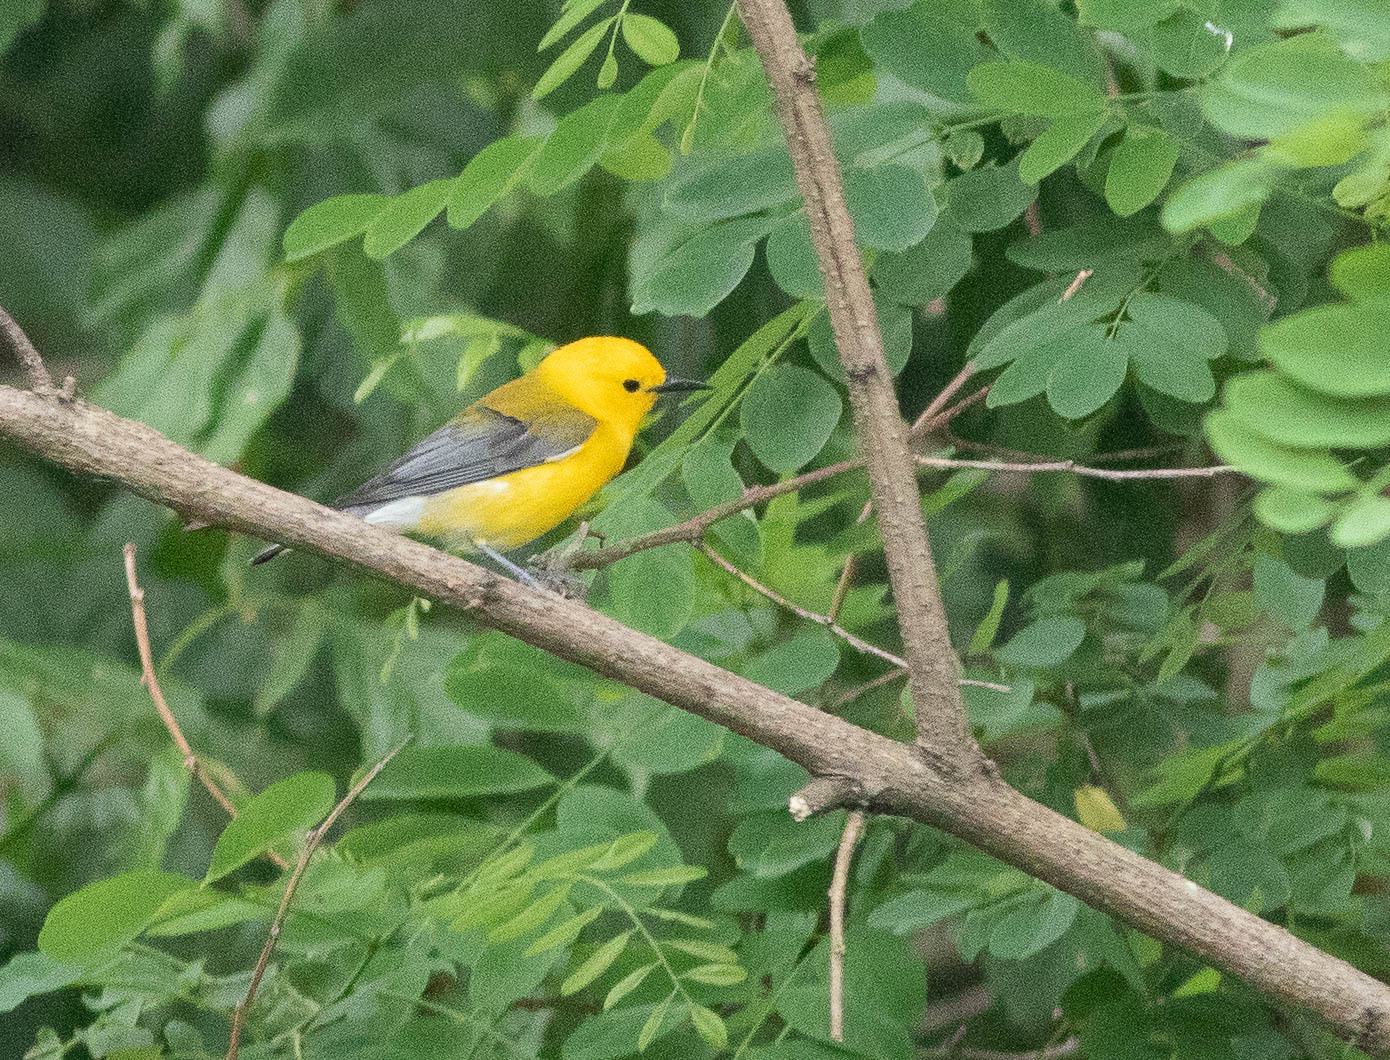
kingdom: Animalia
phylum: Chordata
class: Aves
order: Passeriformes
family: Parulidae
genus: Protonotaria
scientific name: Protonotaria citrea
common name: Prothonotary warbler
